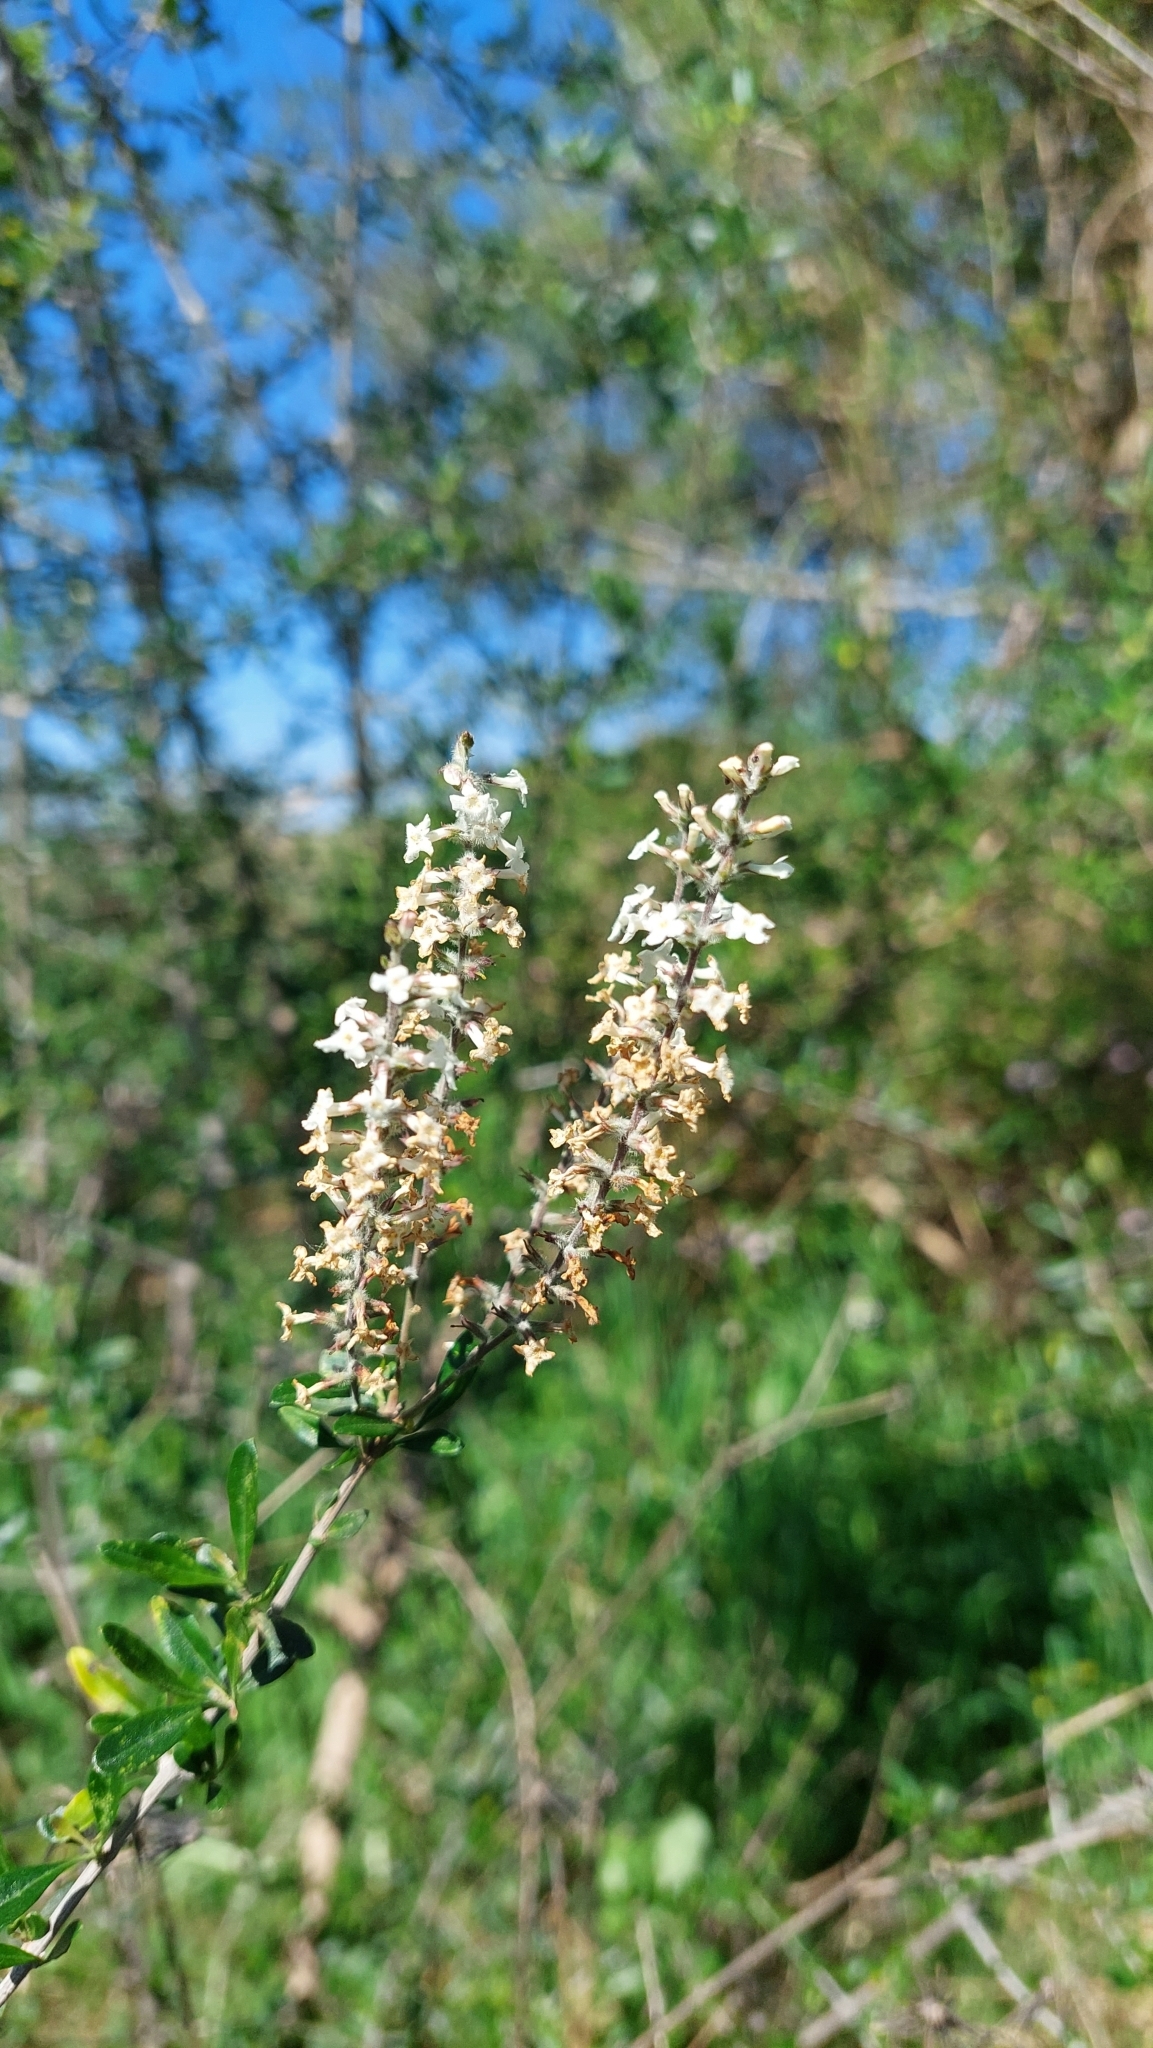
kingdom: Plantae
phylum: Tracheophyta
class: Magnoliopsida
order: Lamiales
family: Verbenaceae
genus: Aloysia
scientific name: Aloysia gratissima
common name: Common bee-brush
